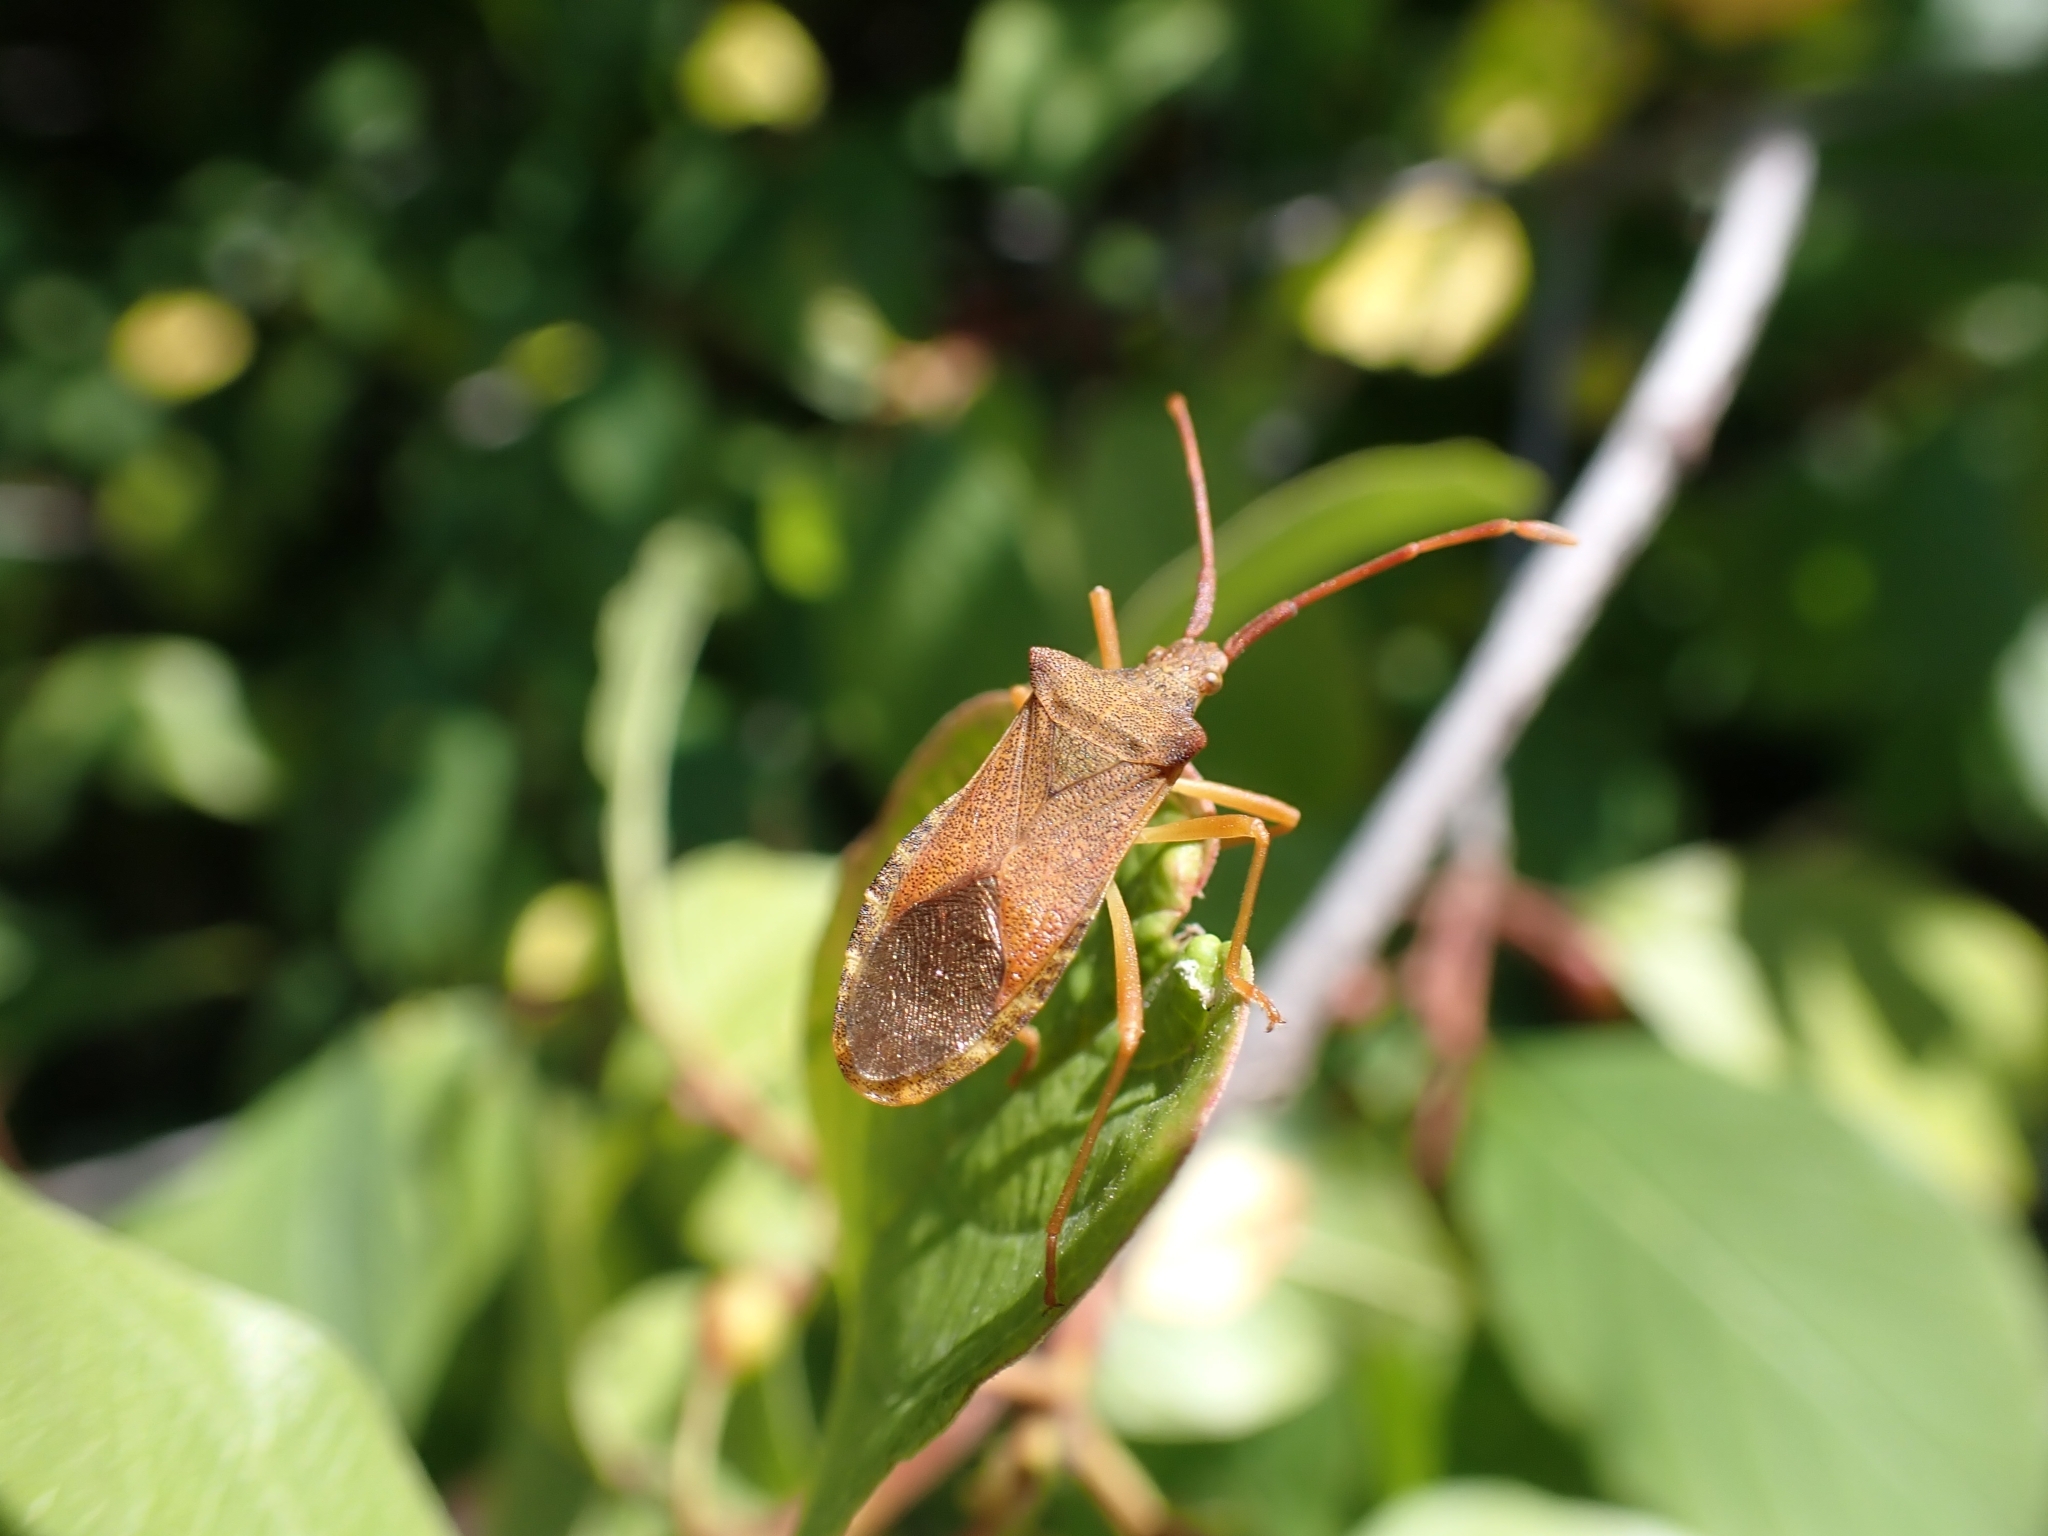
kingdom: Animalia
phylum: Arthropoda
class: Insecta
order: Hemiptera
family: Coreidae
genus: Gonocerus
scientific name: Gonocerus acuteangulatus
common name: Box bug
